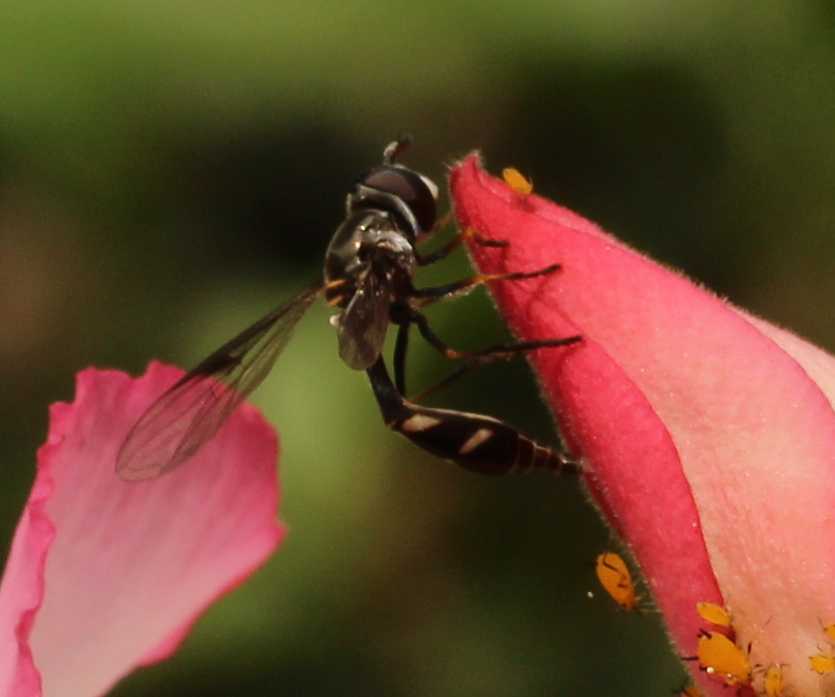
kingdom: Animalia
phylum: Arthropoda
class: Insecta
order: Diptera
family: Syrphidae
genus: Dioprosopa
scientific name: Dioprosopa clavatus
